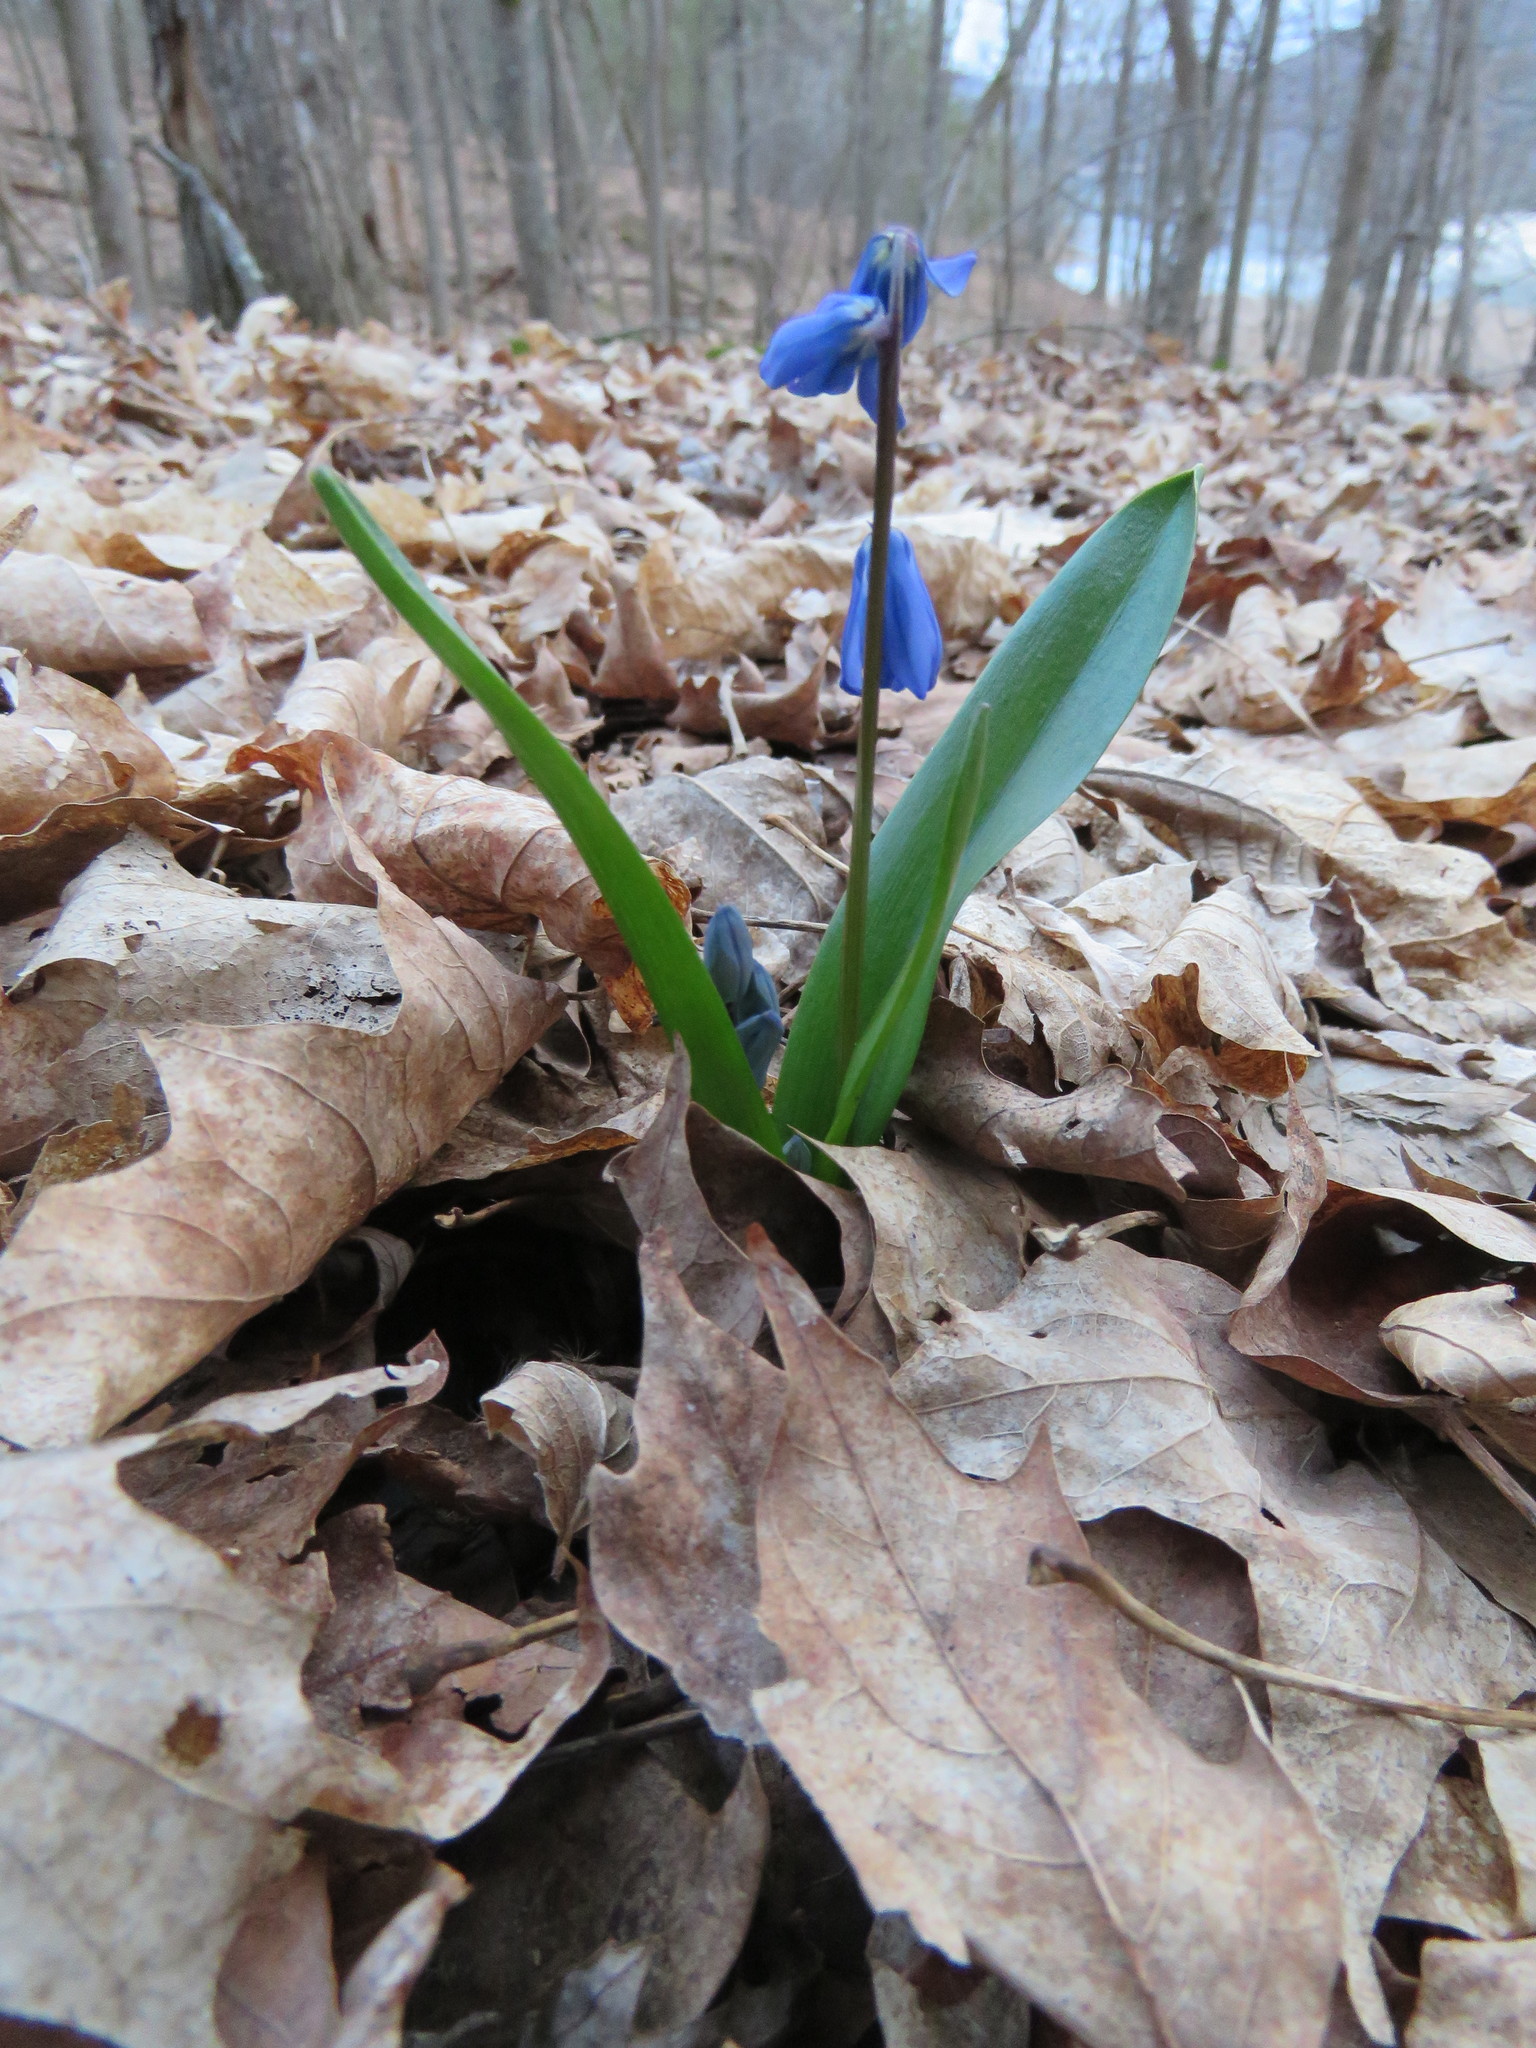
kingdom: Plantae
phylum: Tracheophyta
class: Liliopsida
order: Asparagales
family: Asparagaceae
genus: Scilla
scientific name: Scilla siberica
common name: Siberian squill
